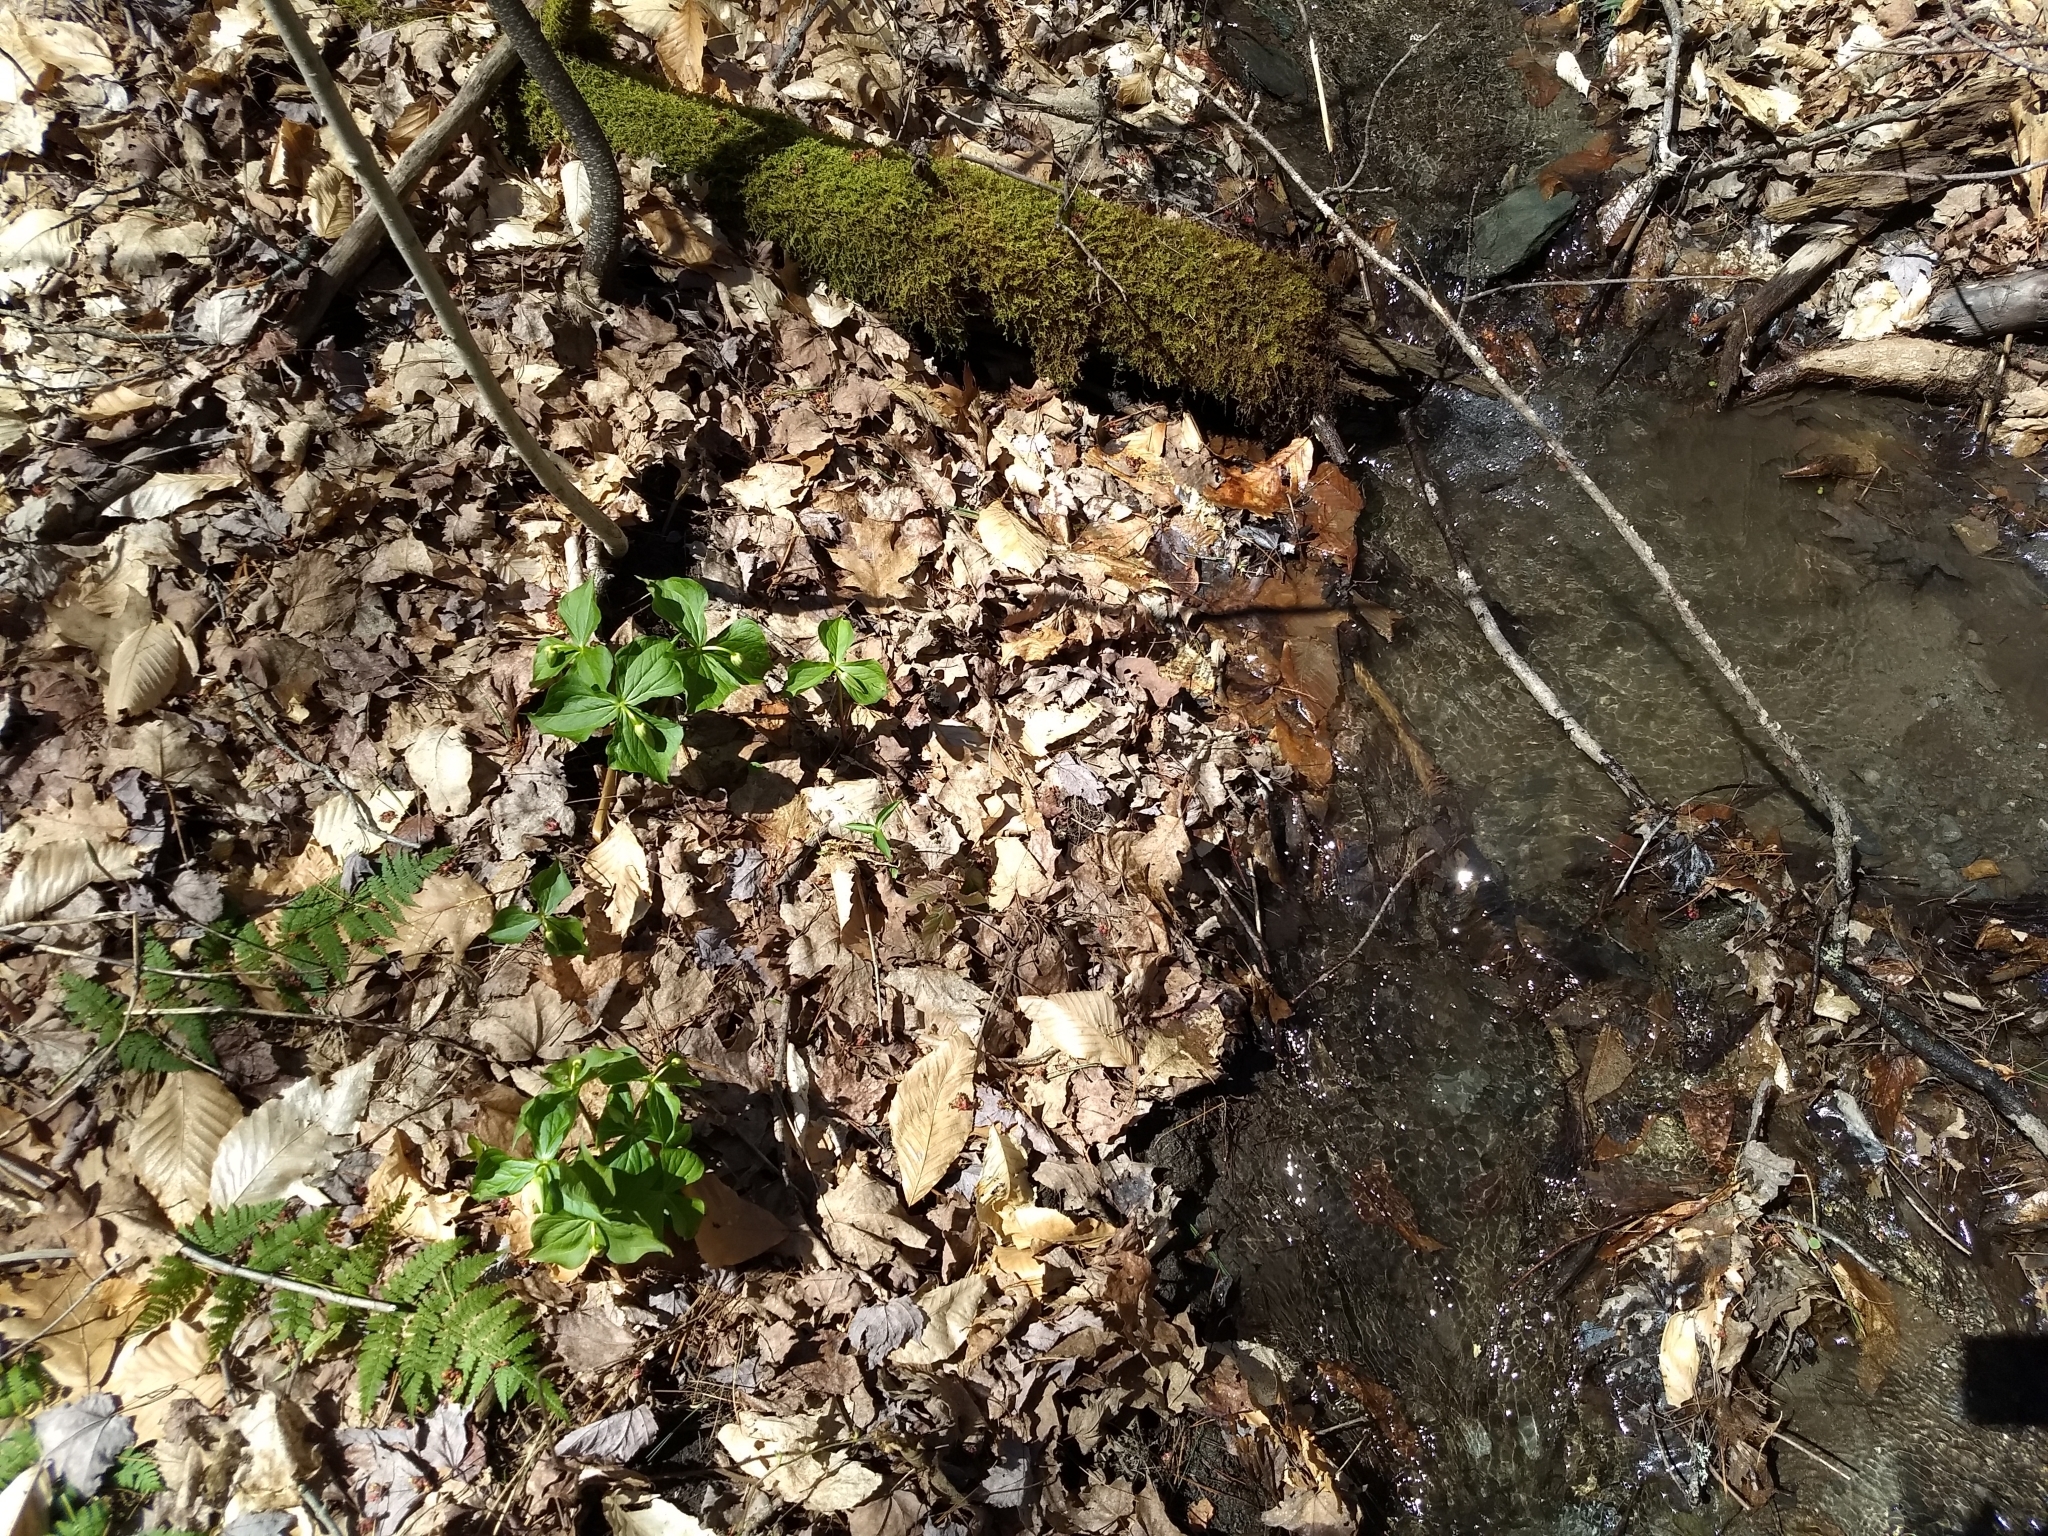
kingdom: Plantae
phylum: Tracheophyta
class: Liliopsida
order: Liliales
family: Melanthiaceae
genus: Trillium
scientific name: Trillium erectum
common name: Purple trillium
